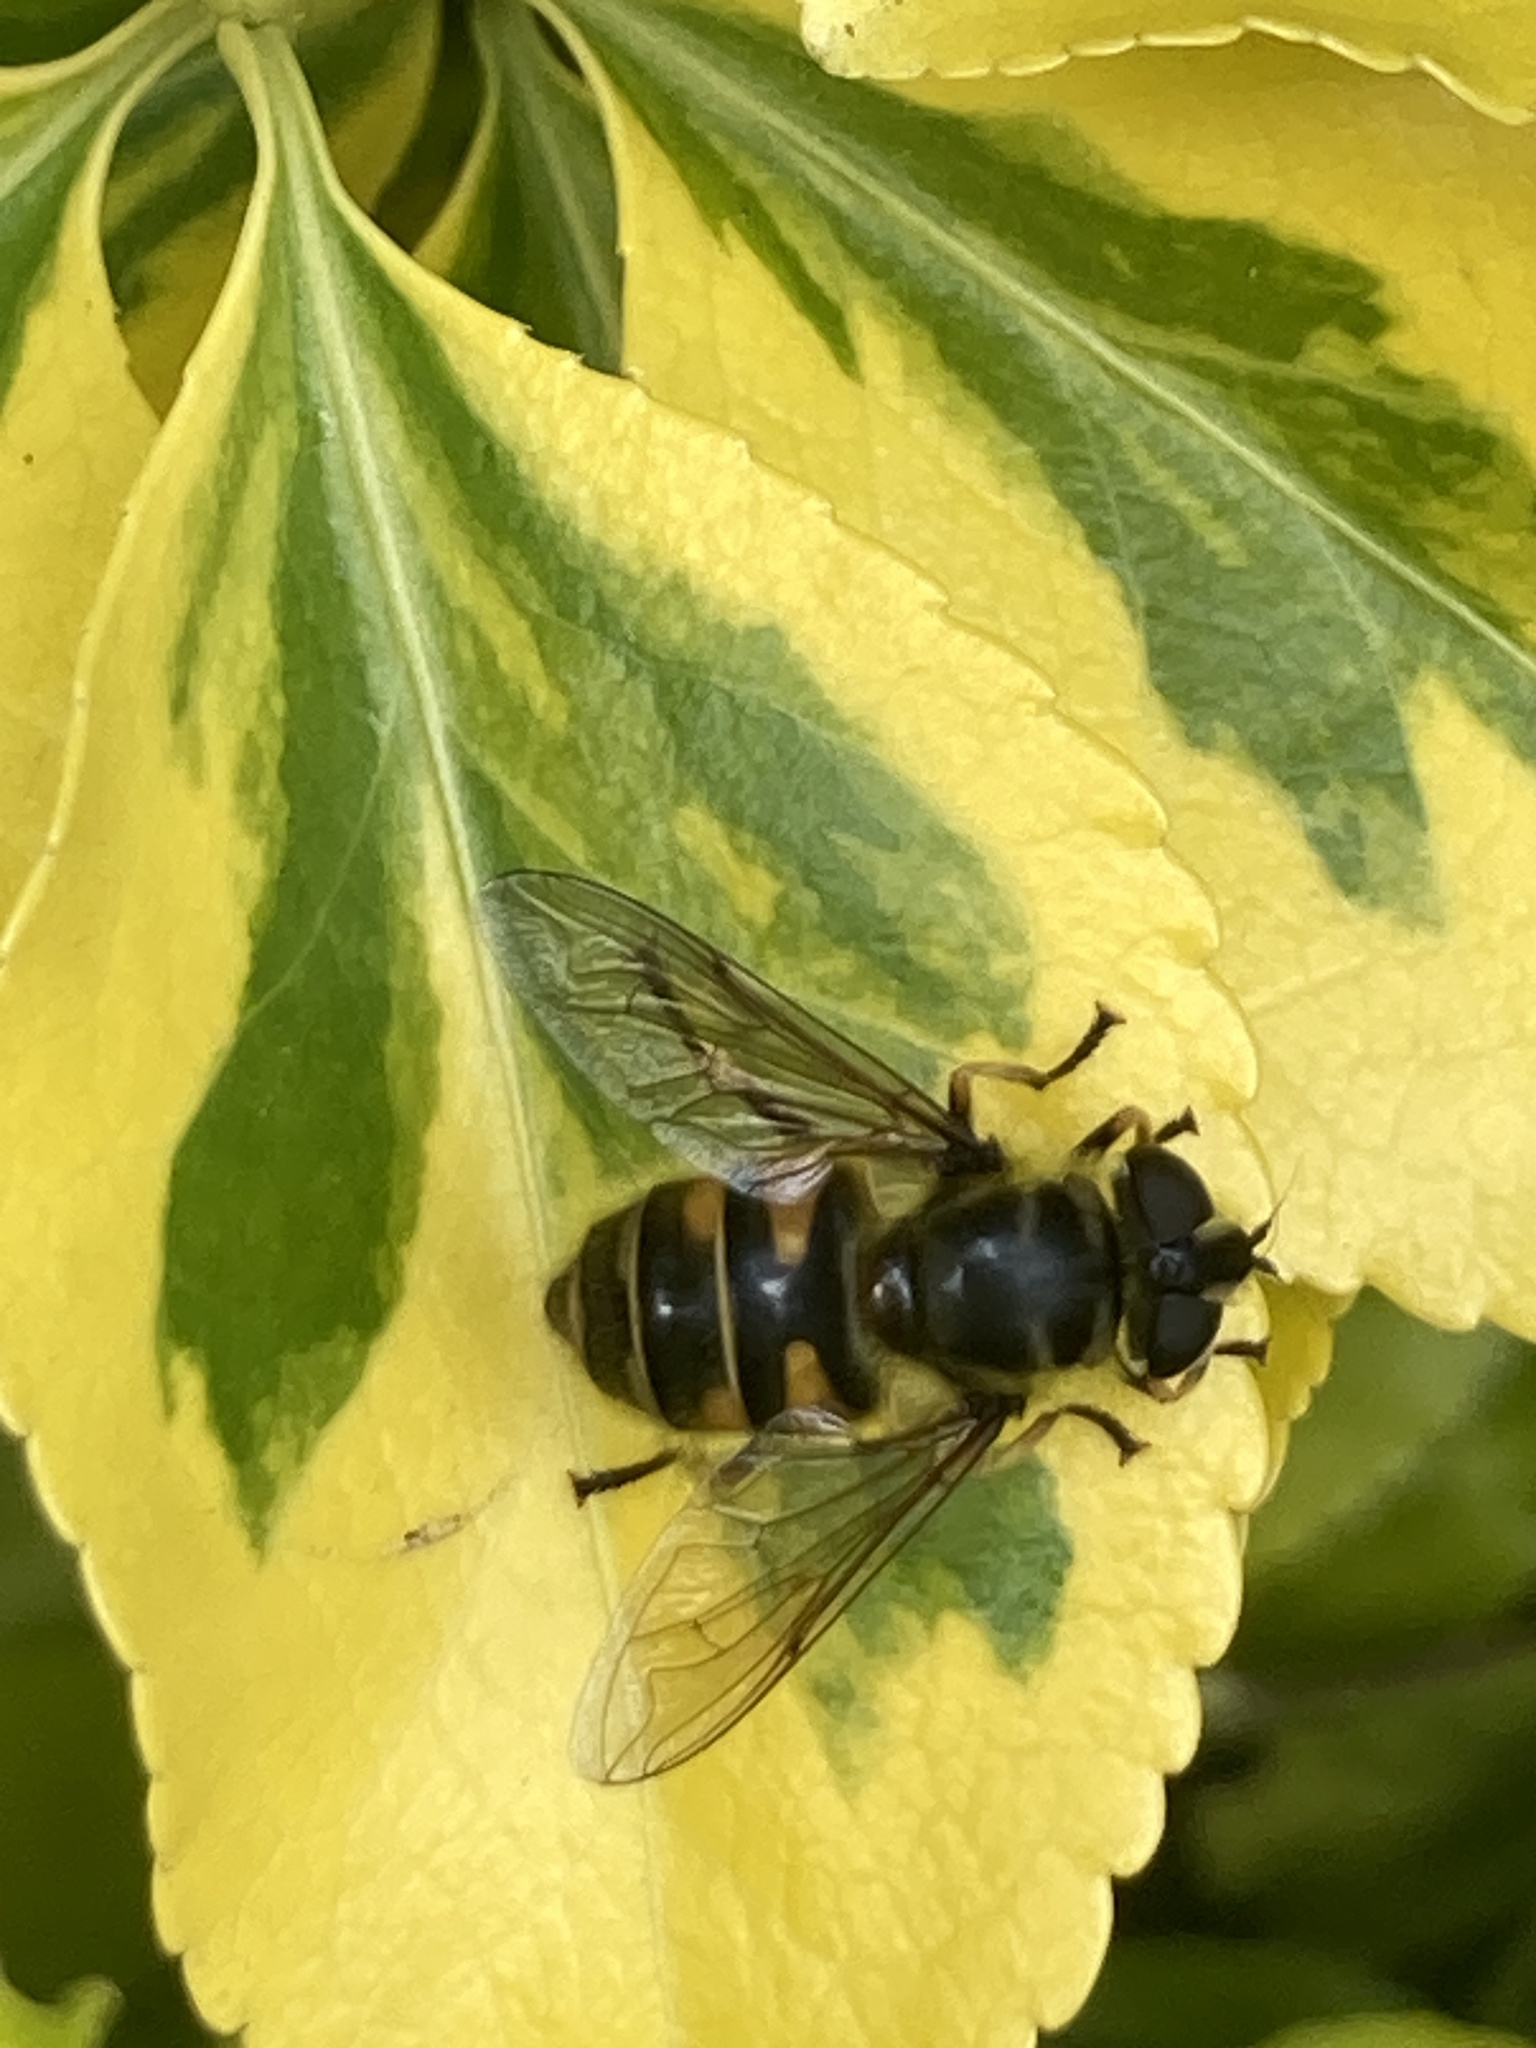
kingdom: Animalia
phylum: Arthropoda
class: Insecta
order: Diptera
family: Syrphidae
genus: Myathropa
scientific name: Myathropa florea
